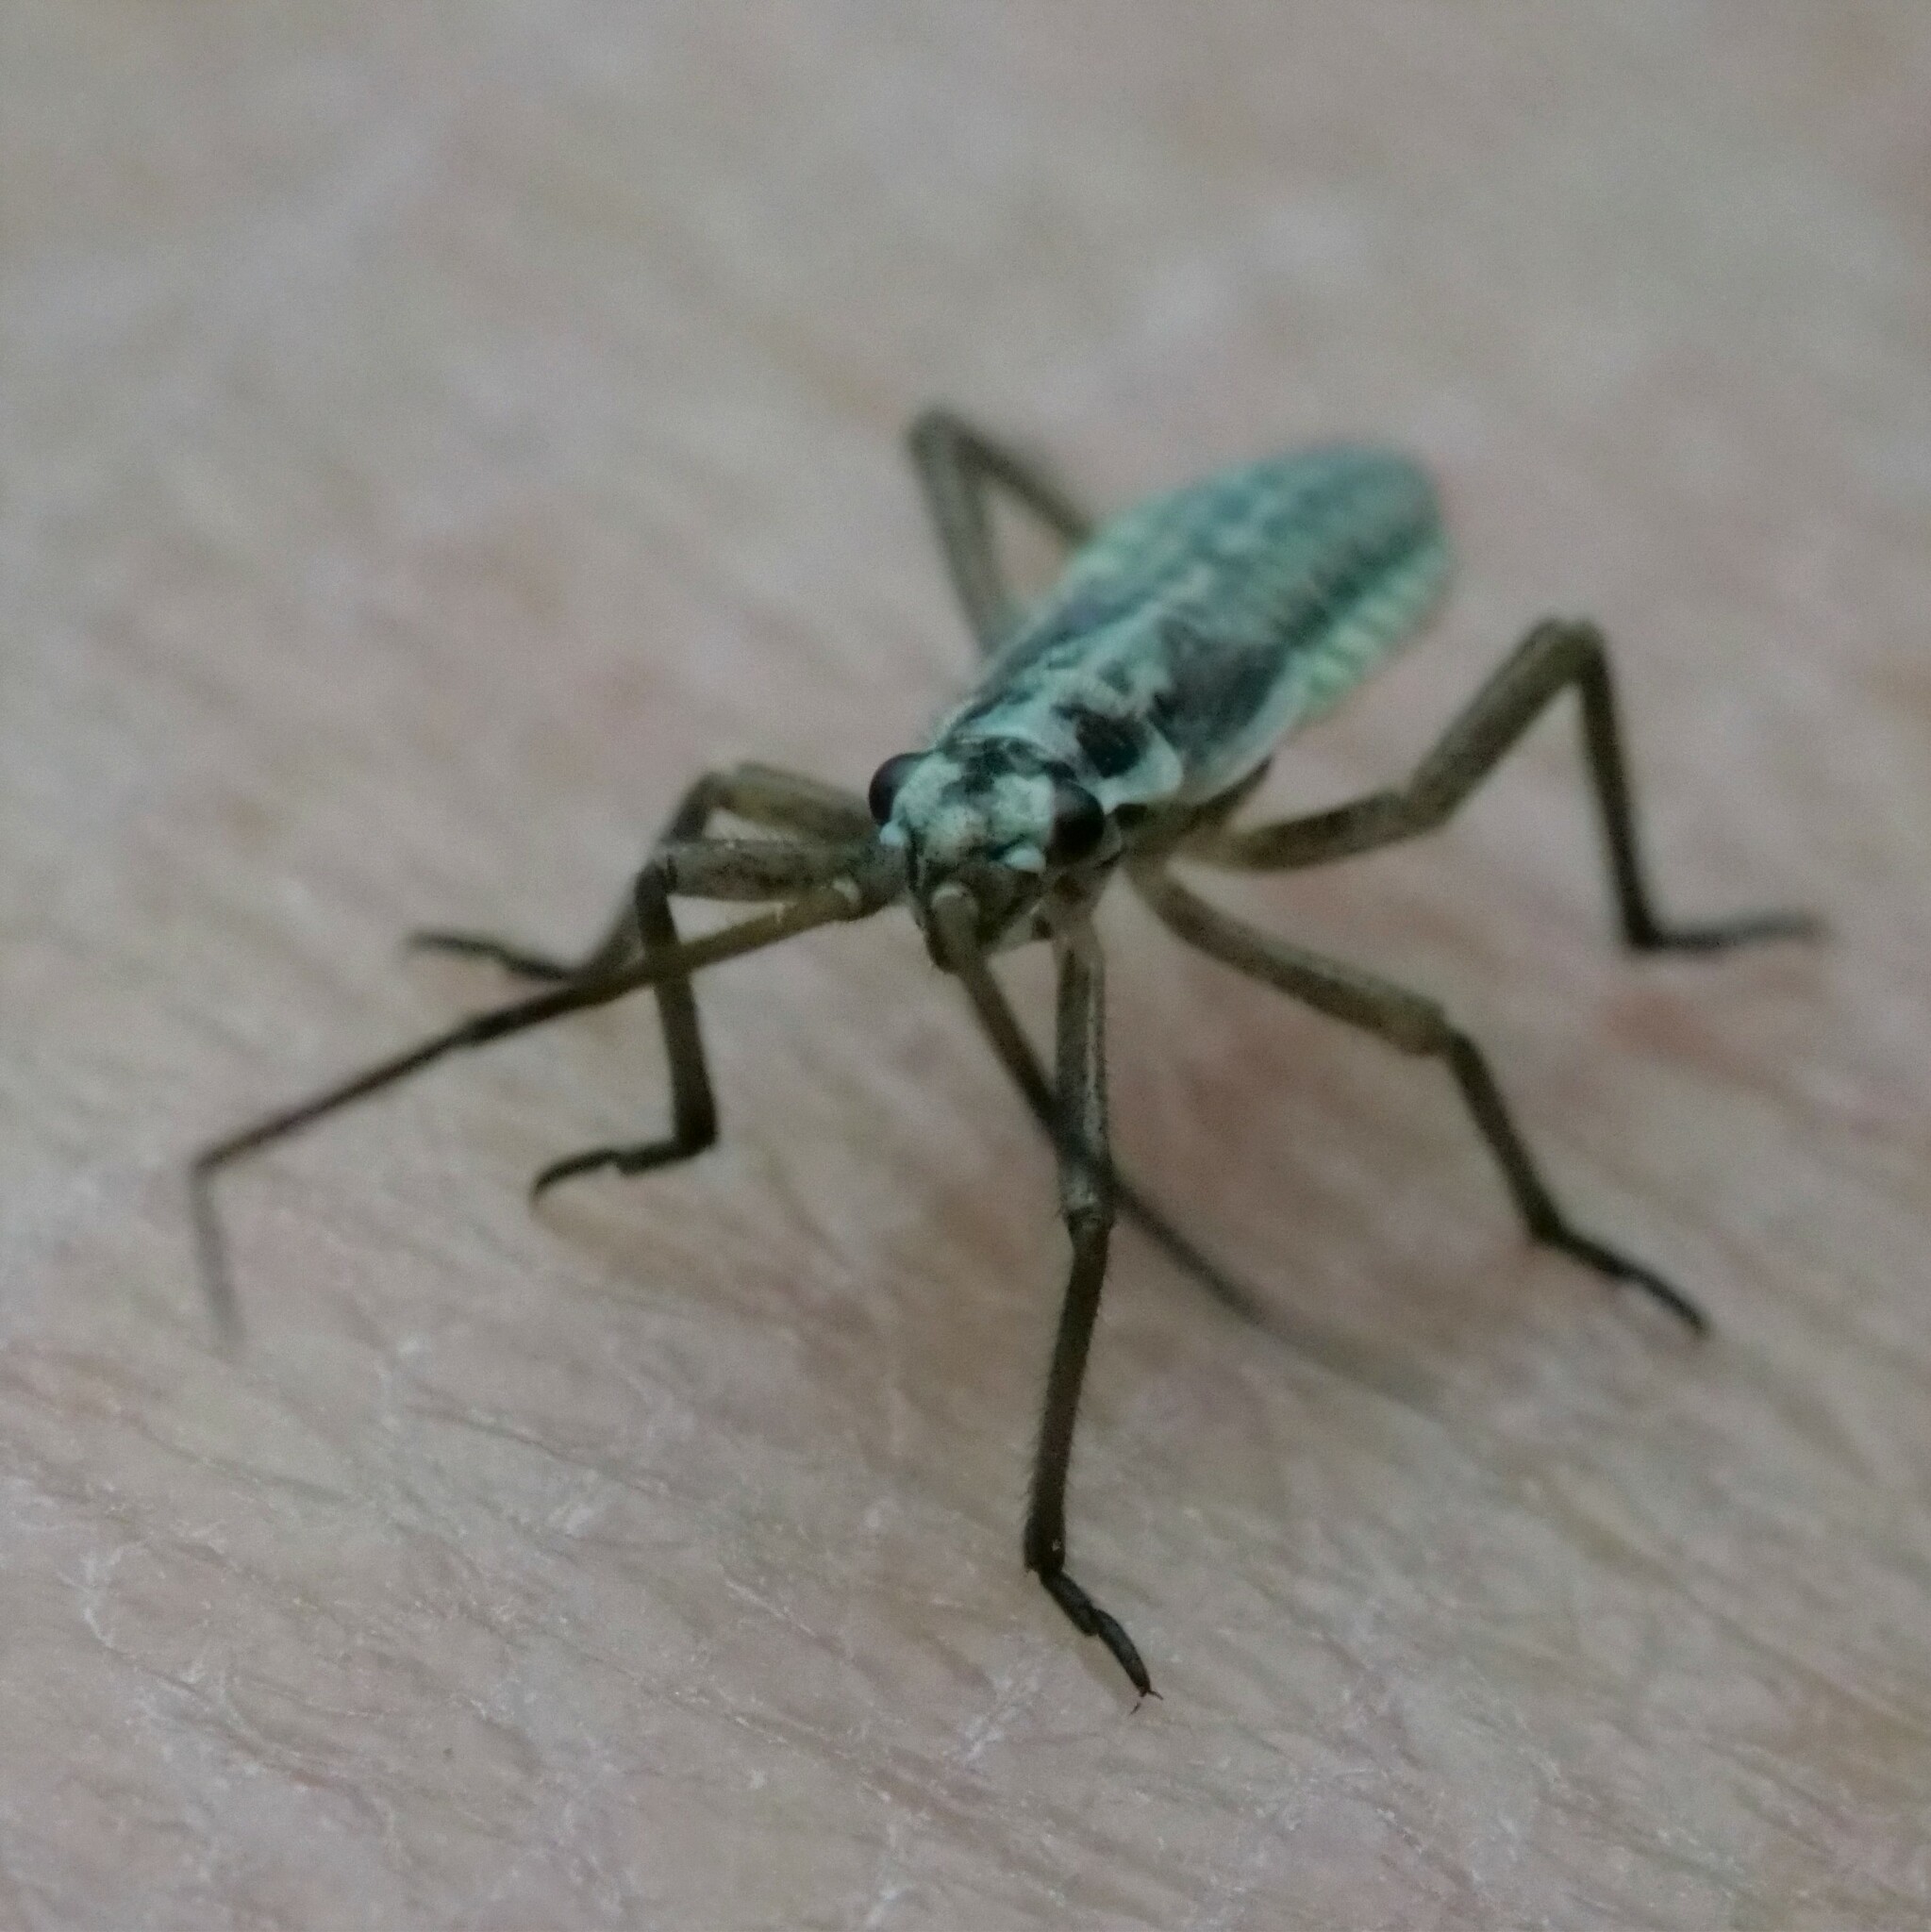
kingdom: Animalia
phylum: Arthropoda
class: Insecta
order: Hemiptera
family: Miridae
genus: Leptopterna
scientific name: Leptopterna dolabrata
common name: Meadow plant bug
